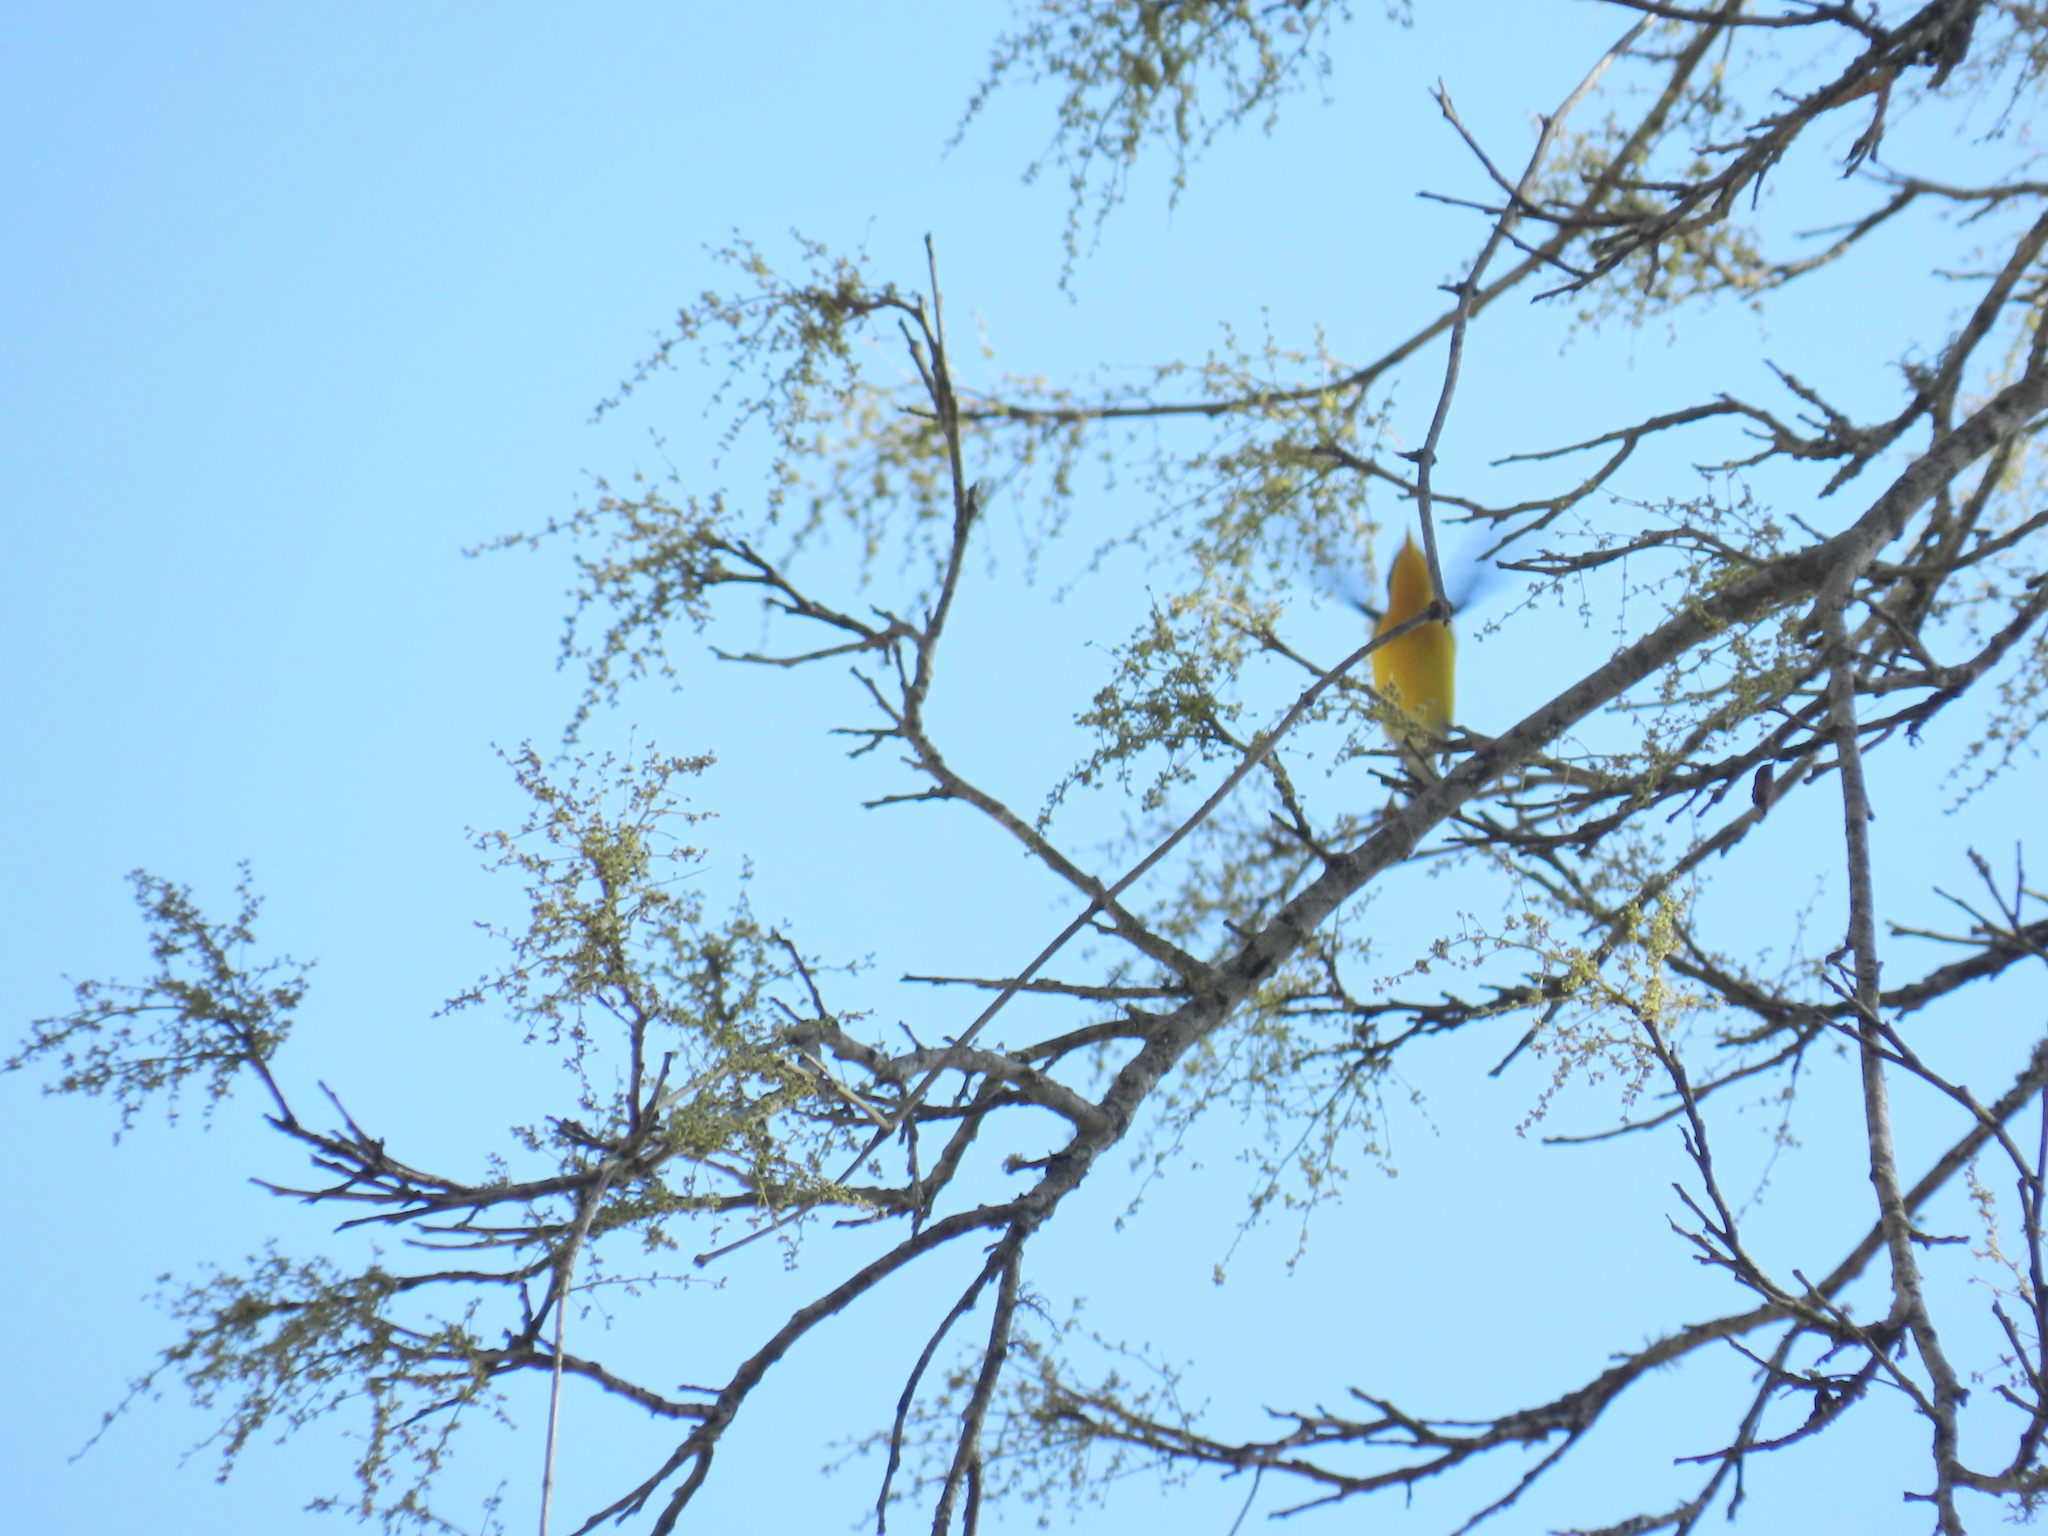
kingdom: Animalia
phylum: Chordata
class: Aves
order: Passeriformes
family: Parulidae
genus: Setophaga
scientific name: Setophaga pitiayumi
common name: Tropical parula
